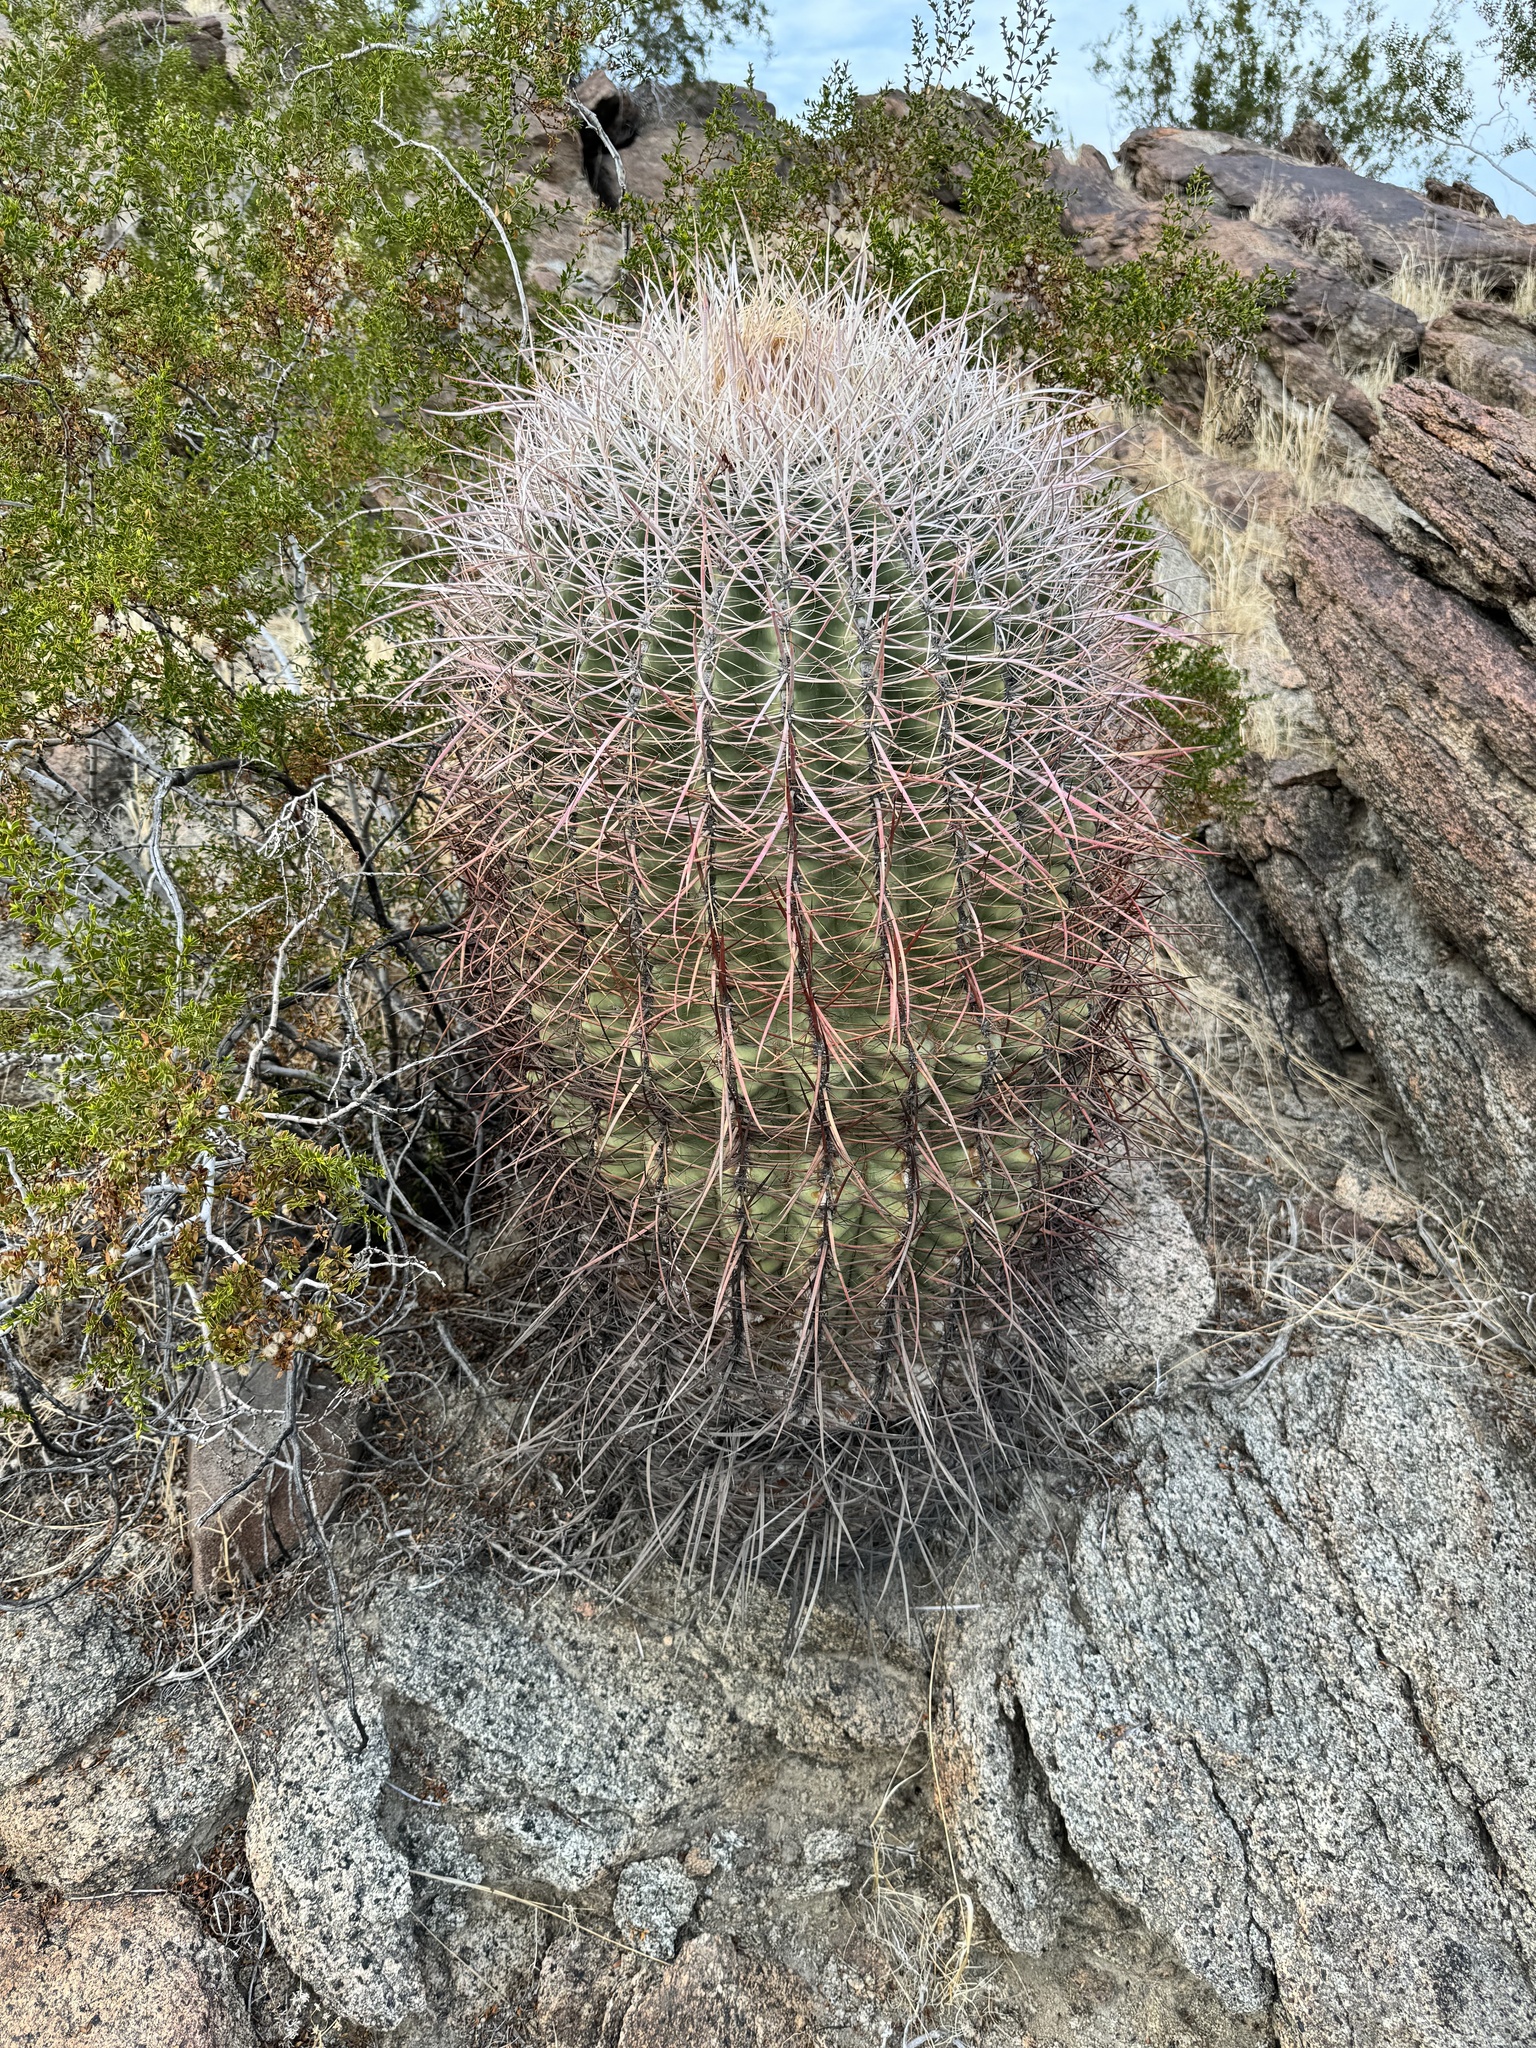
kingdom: Plantae
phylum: Tracheophyta
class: Magnoliopsida
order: Caryophyllales
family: Cactaceae
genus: Ferocactus
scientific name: Ferocactus cylindraceus
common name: California barrel cactus
